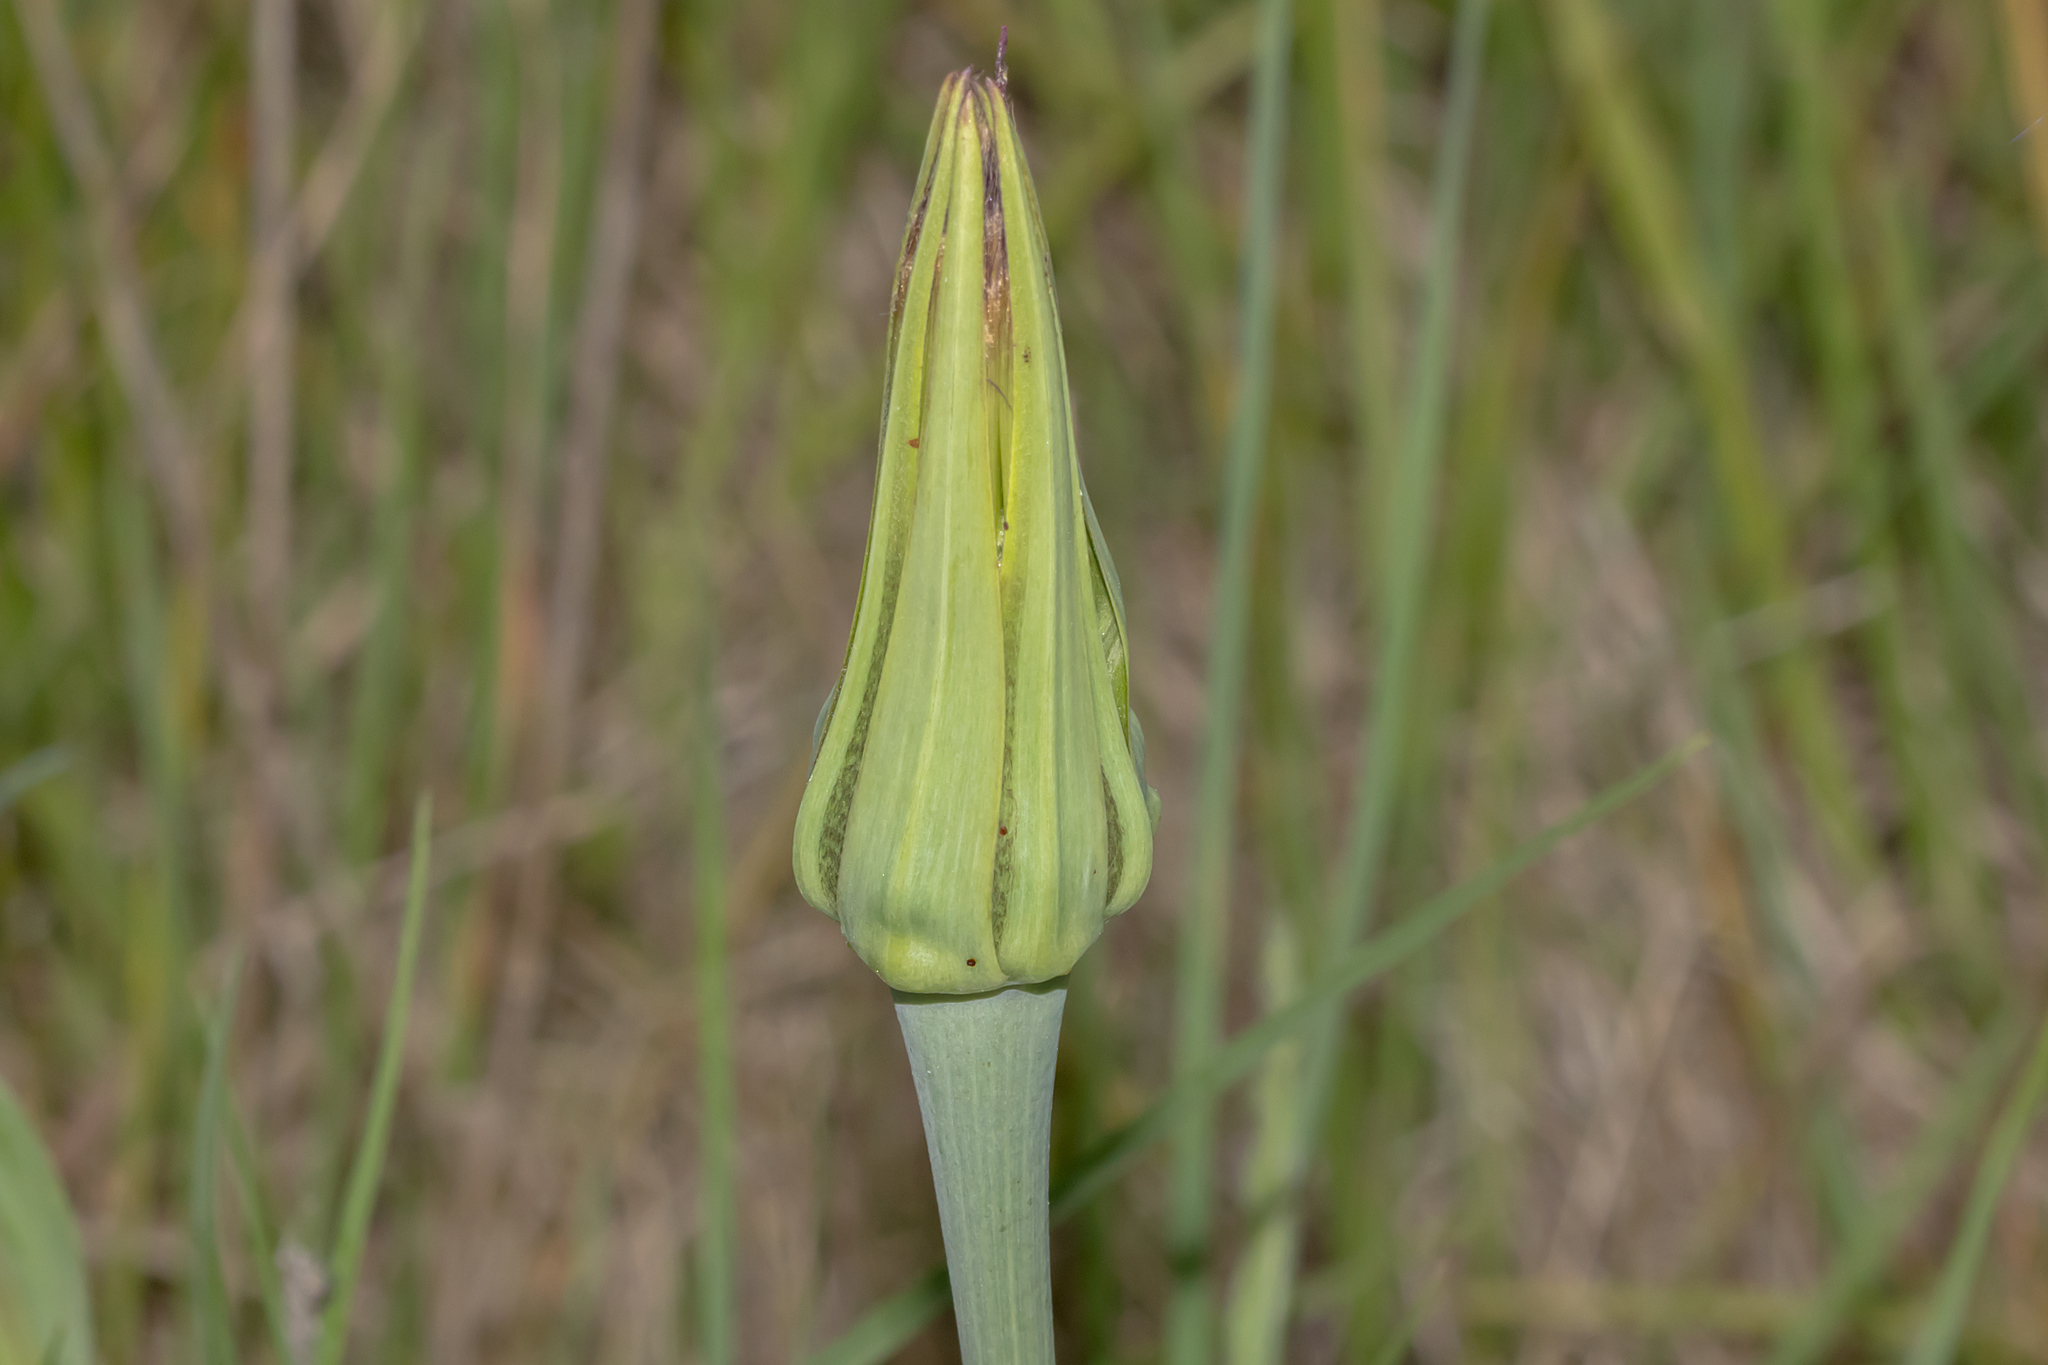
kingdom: Plantae
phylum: Tracheophyta
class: Magnoliopsida
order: Asterales
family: Asteraceae
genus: Tragopogon
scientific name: Tragopogon porrifolius
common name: Salsify
